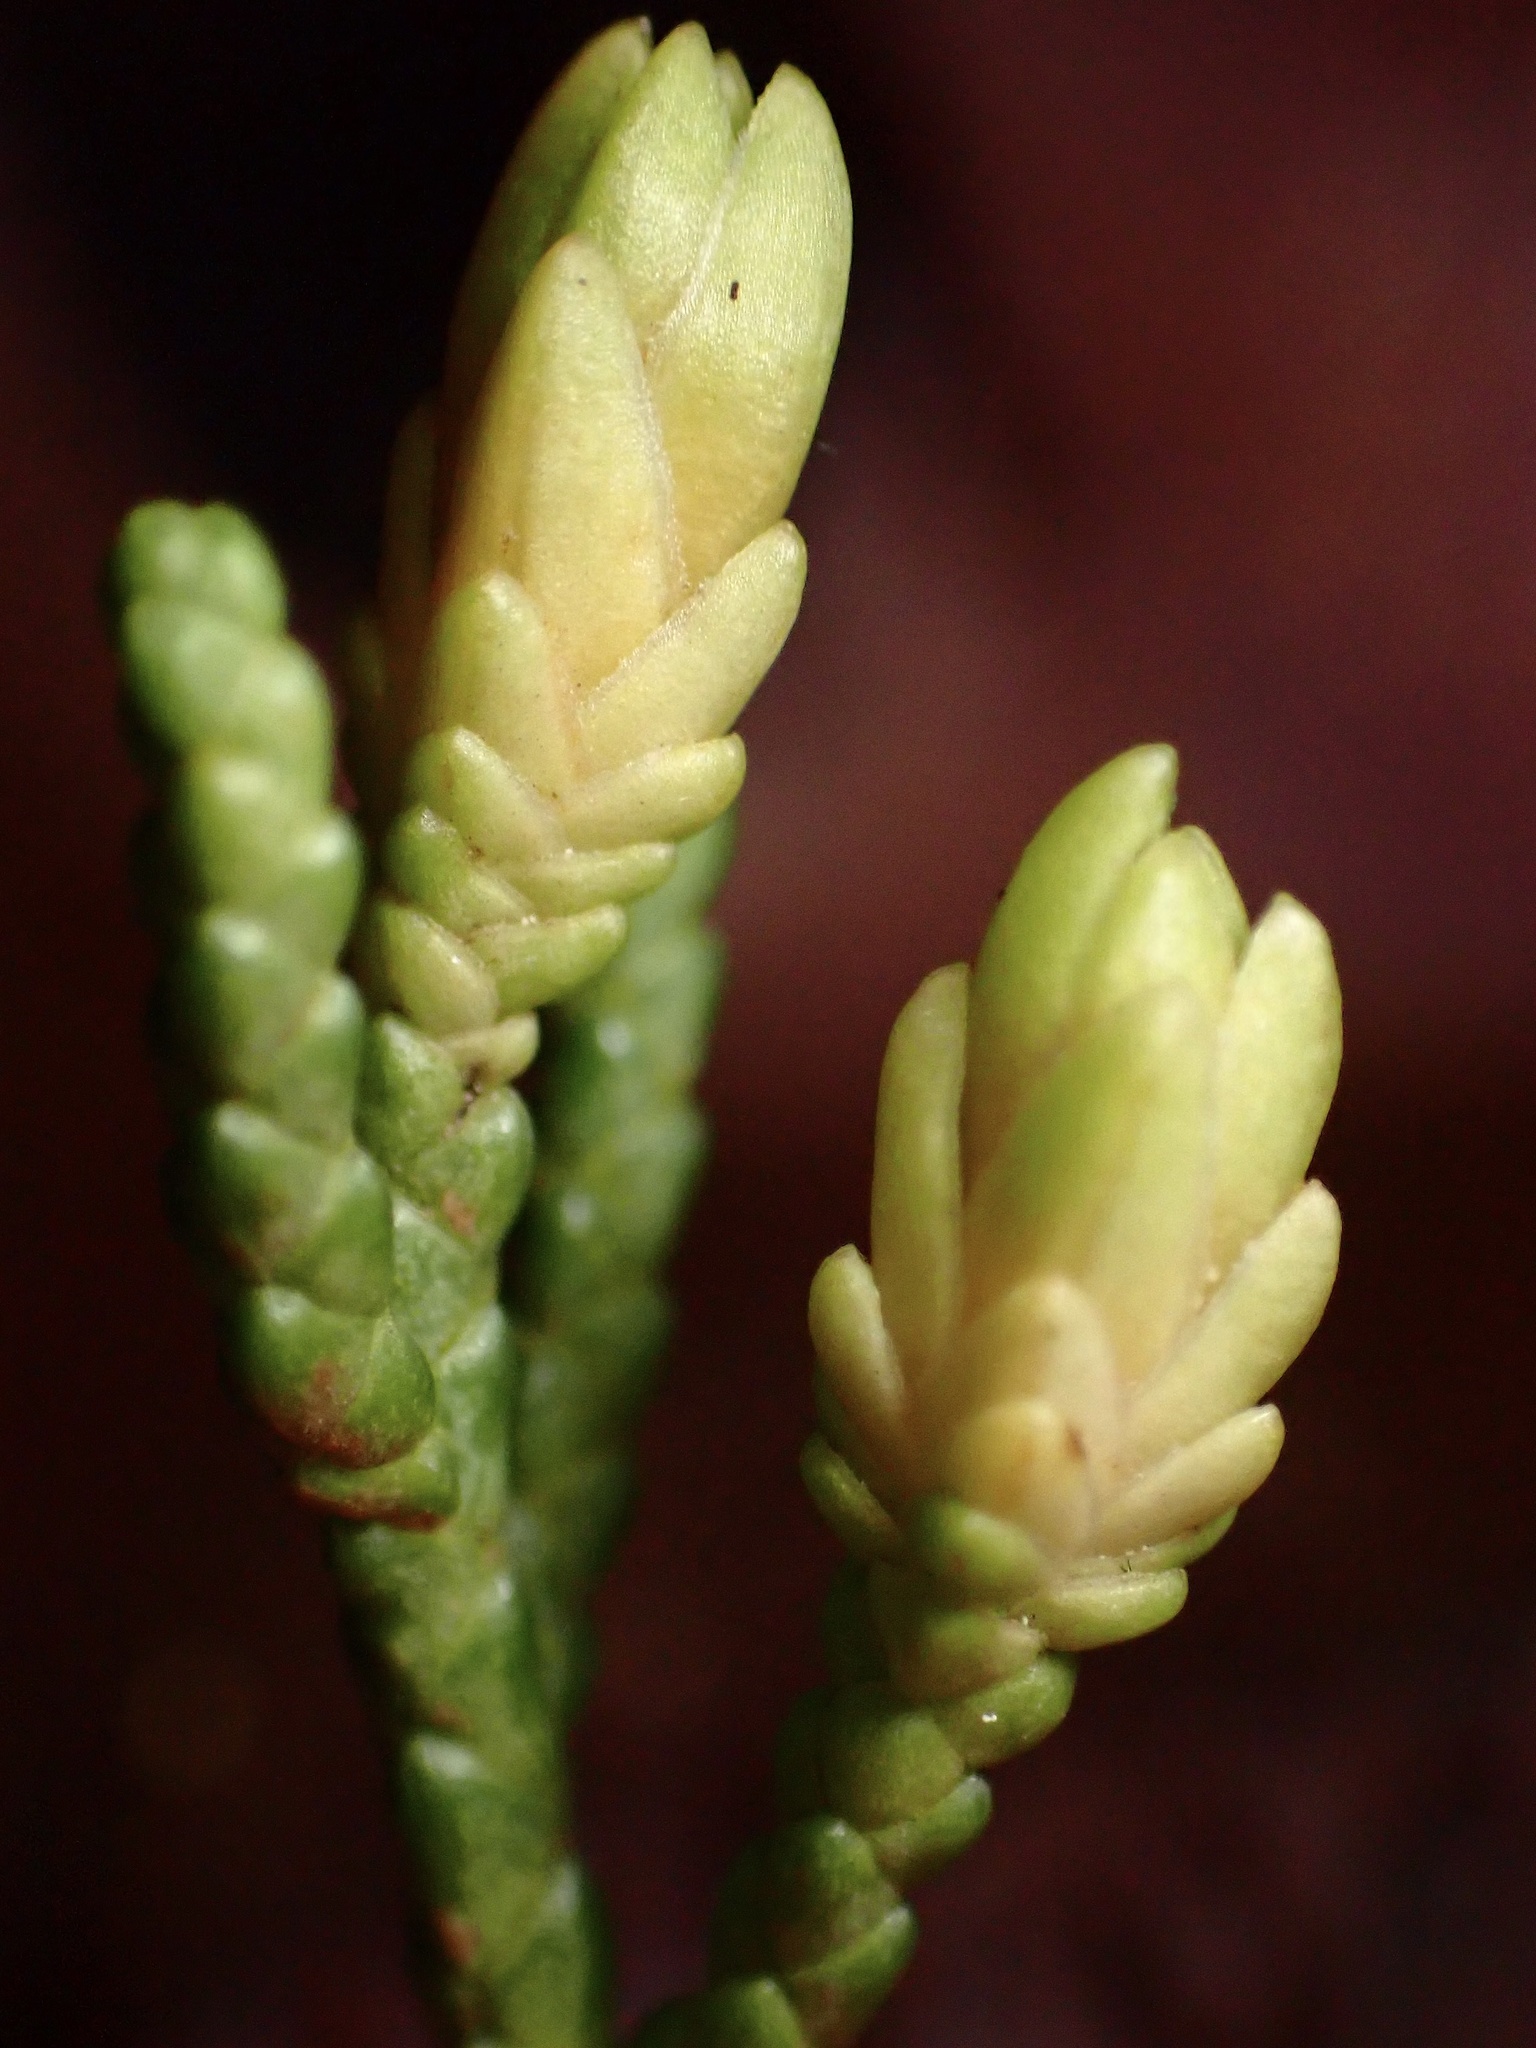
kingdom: Animalia
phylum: Arthropoda
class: Insecta
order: Diptera
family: Cecidomyiidae
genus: Oligotrophus
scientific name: Oligotrophus cupressi
